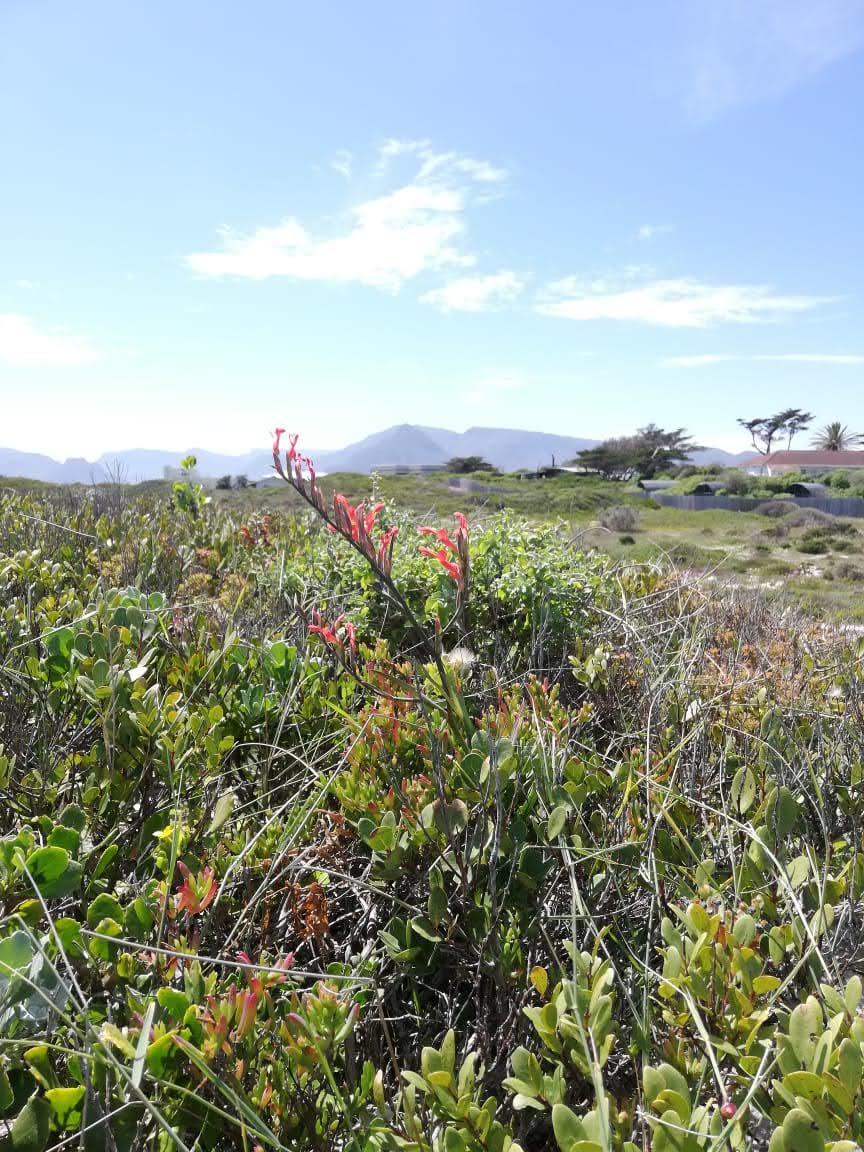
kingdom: Plantae
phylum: Tracheophyta
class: Liliopsida
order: Asparagales
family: Iridaceae
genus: Gladiolus
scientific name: Gladiolus cunonius
